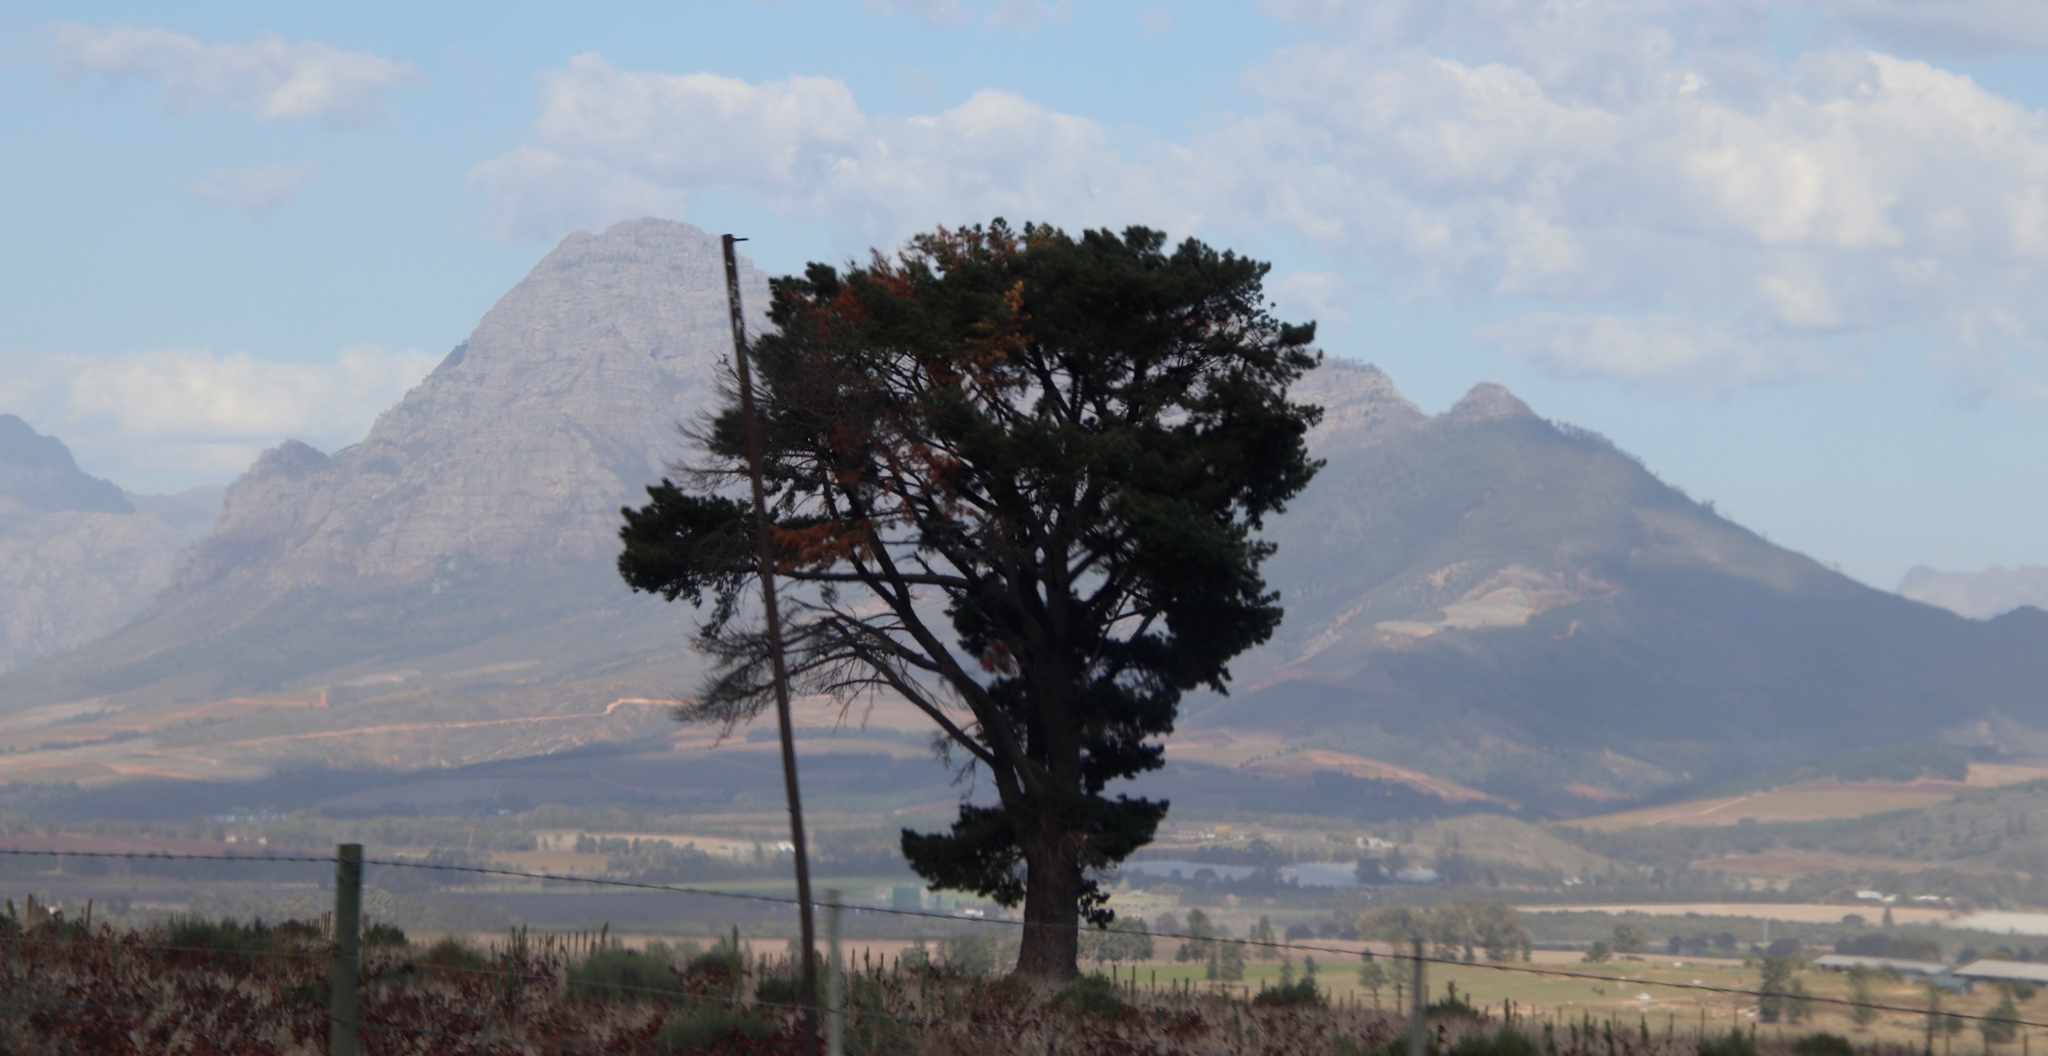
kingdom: Plantae
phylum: Tracheophyta
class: Pinopsida
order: Pinales
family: Pinaceae
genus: Pinus
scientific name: Pinus radiata
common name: Monterey pine
